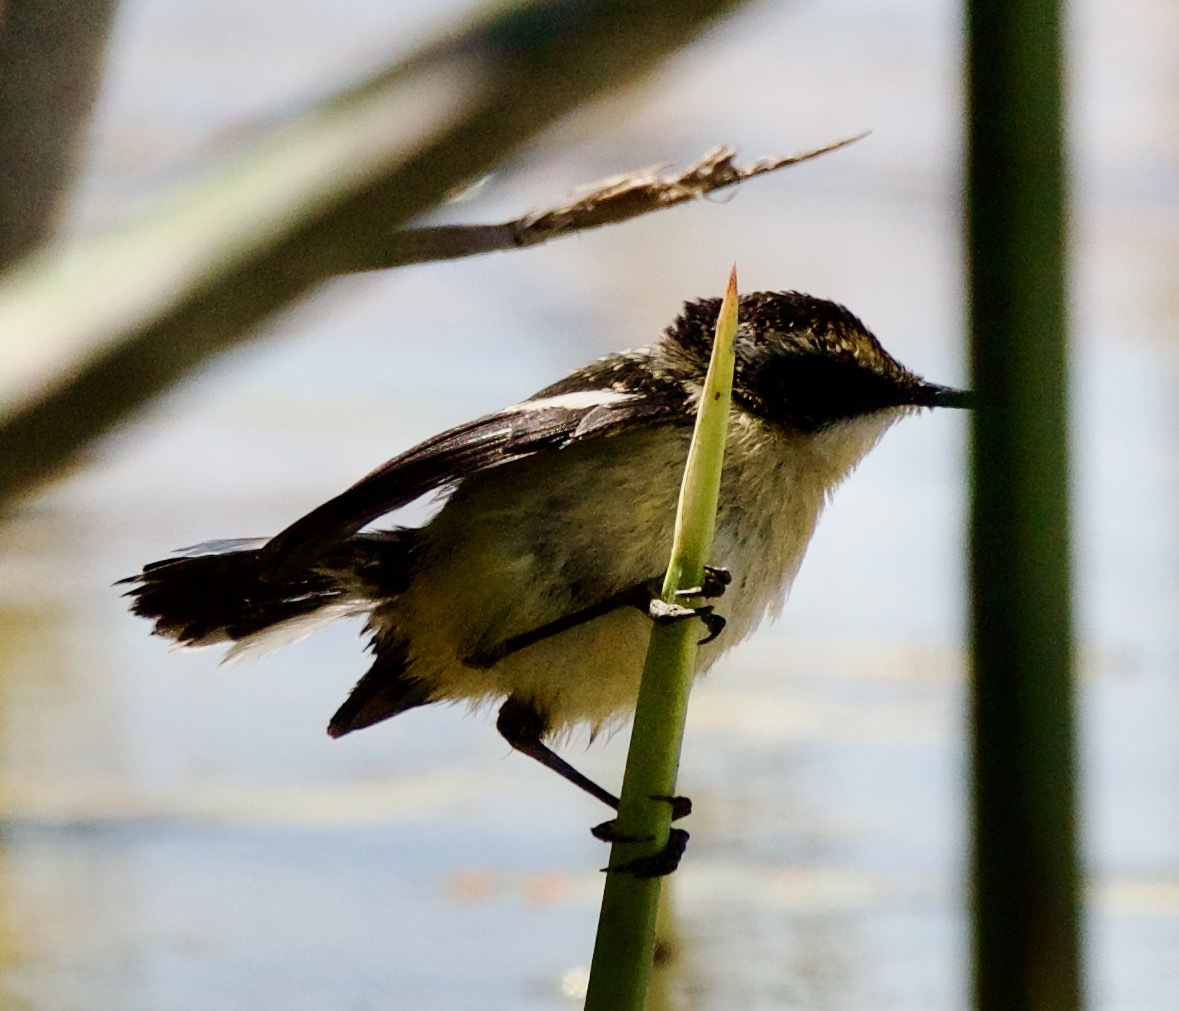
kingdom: Animalia
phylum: Chordata
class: Aves
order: Passeriformes
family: Tyrannidae
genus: Tachuris
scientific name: Tachuris rubrigastra
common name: Many-colored rush tyrant
